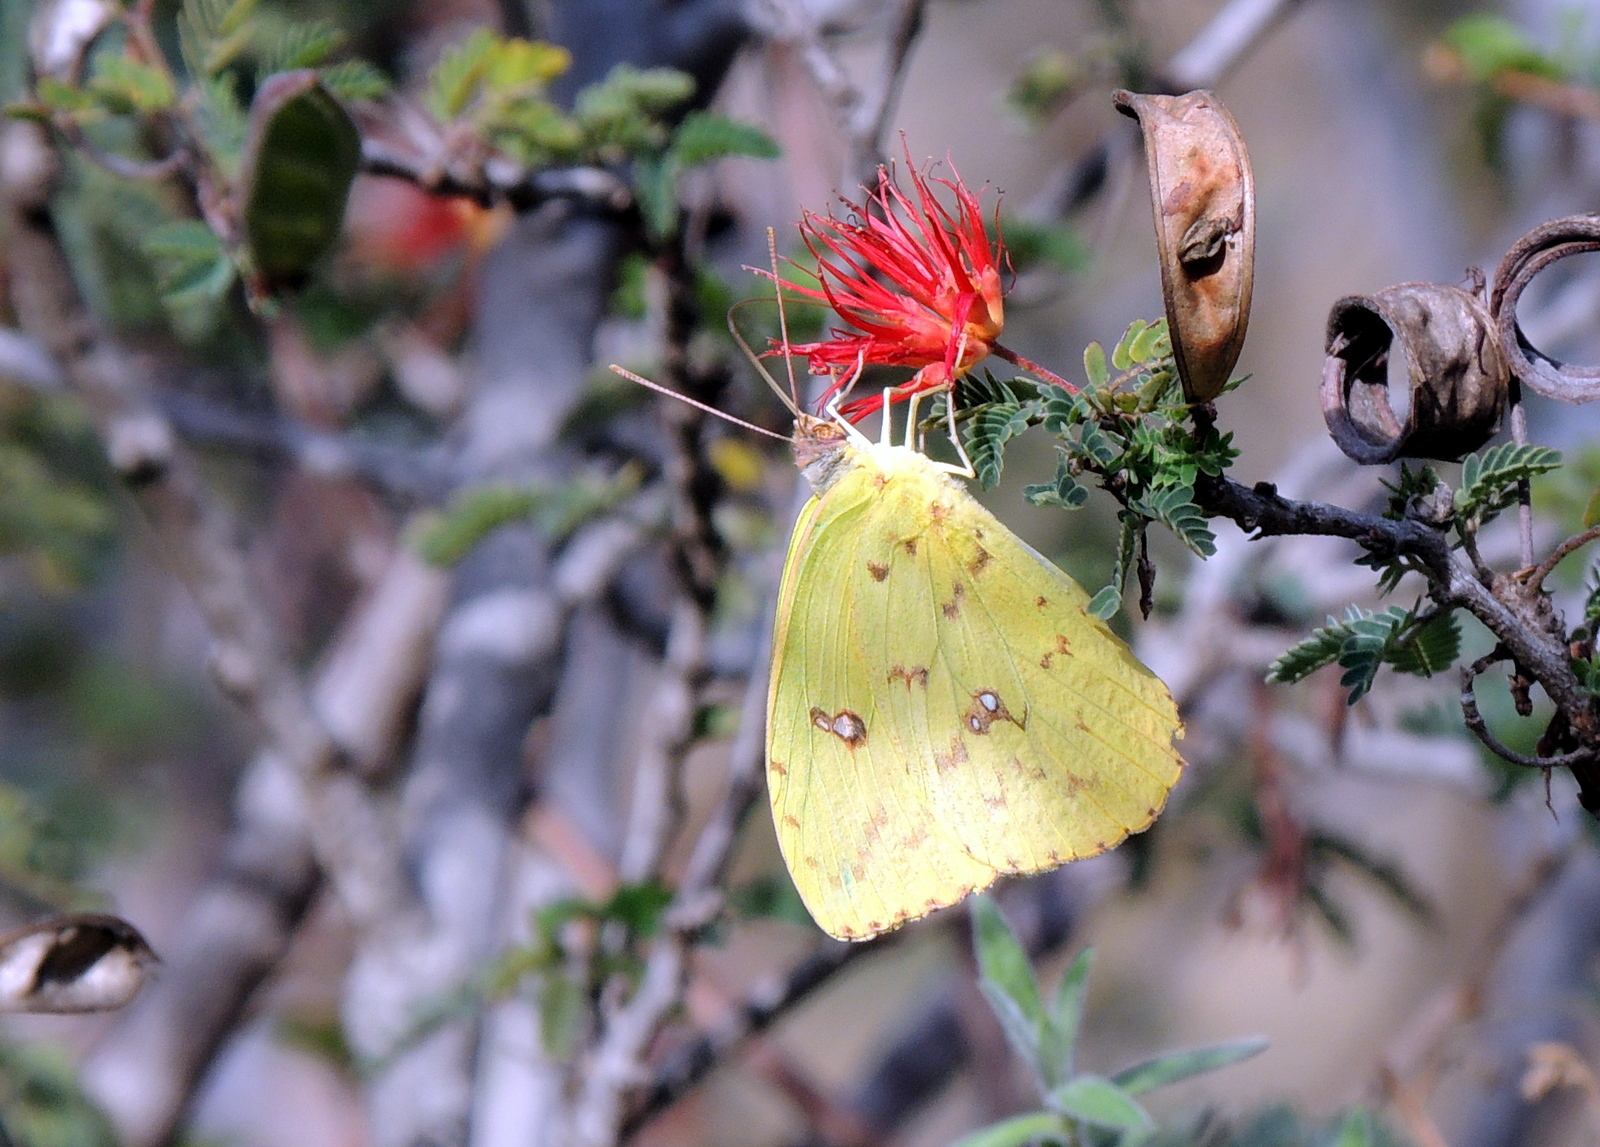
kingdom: Animalia
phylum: Arthropoda
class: Insecta
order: Lepidoptera
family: Pieridae
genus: Phoebis
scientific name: Phoebis sennae
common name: Cloudless sulphur
